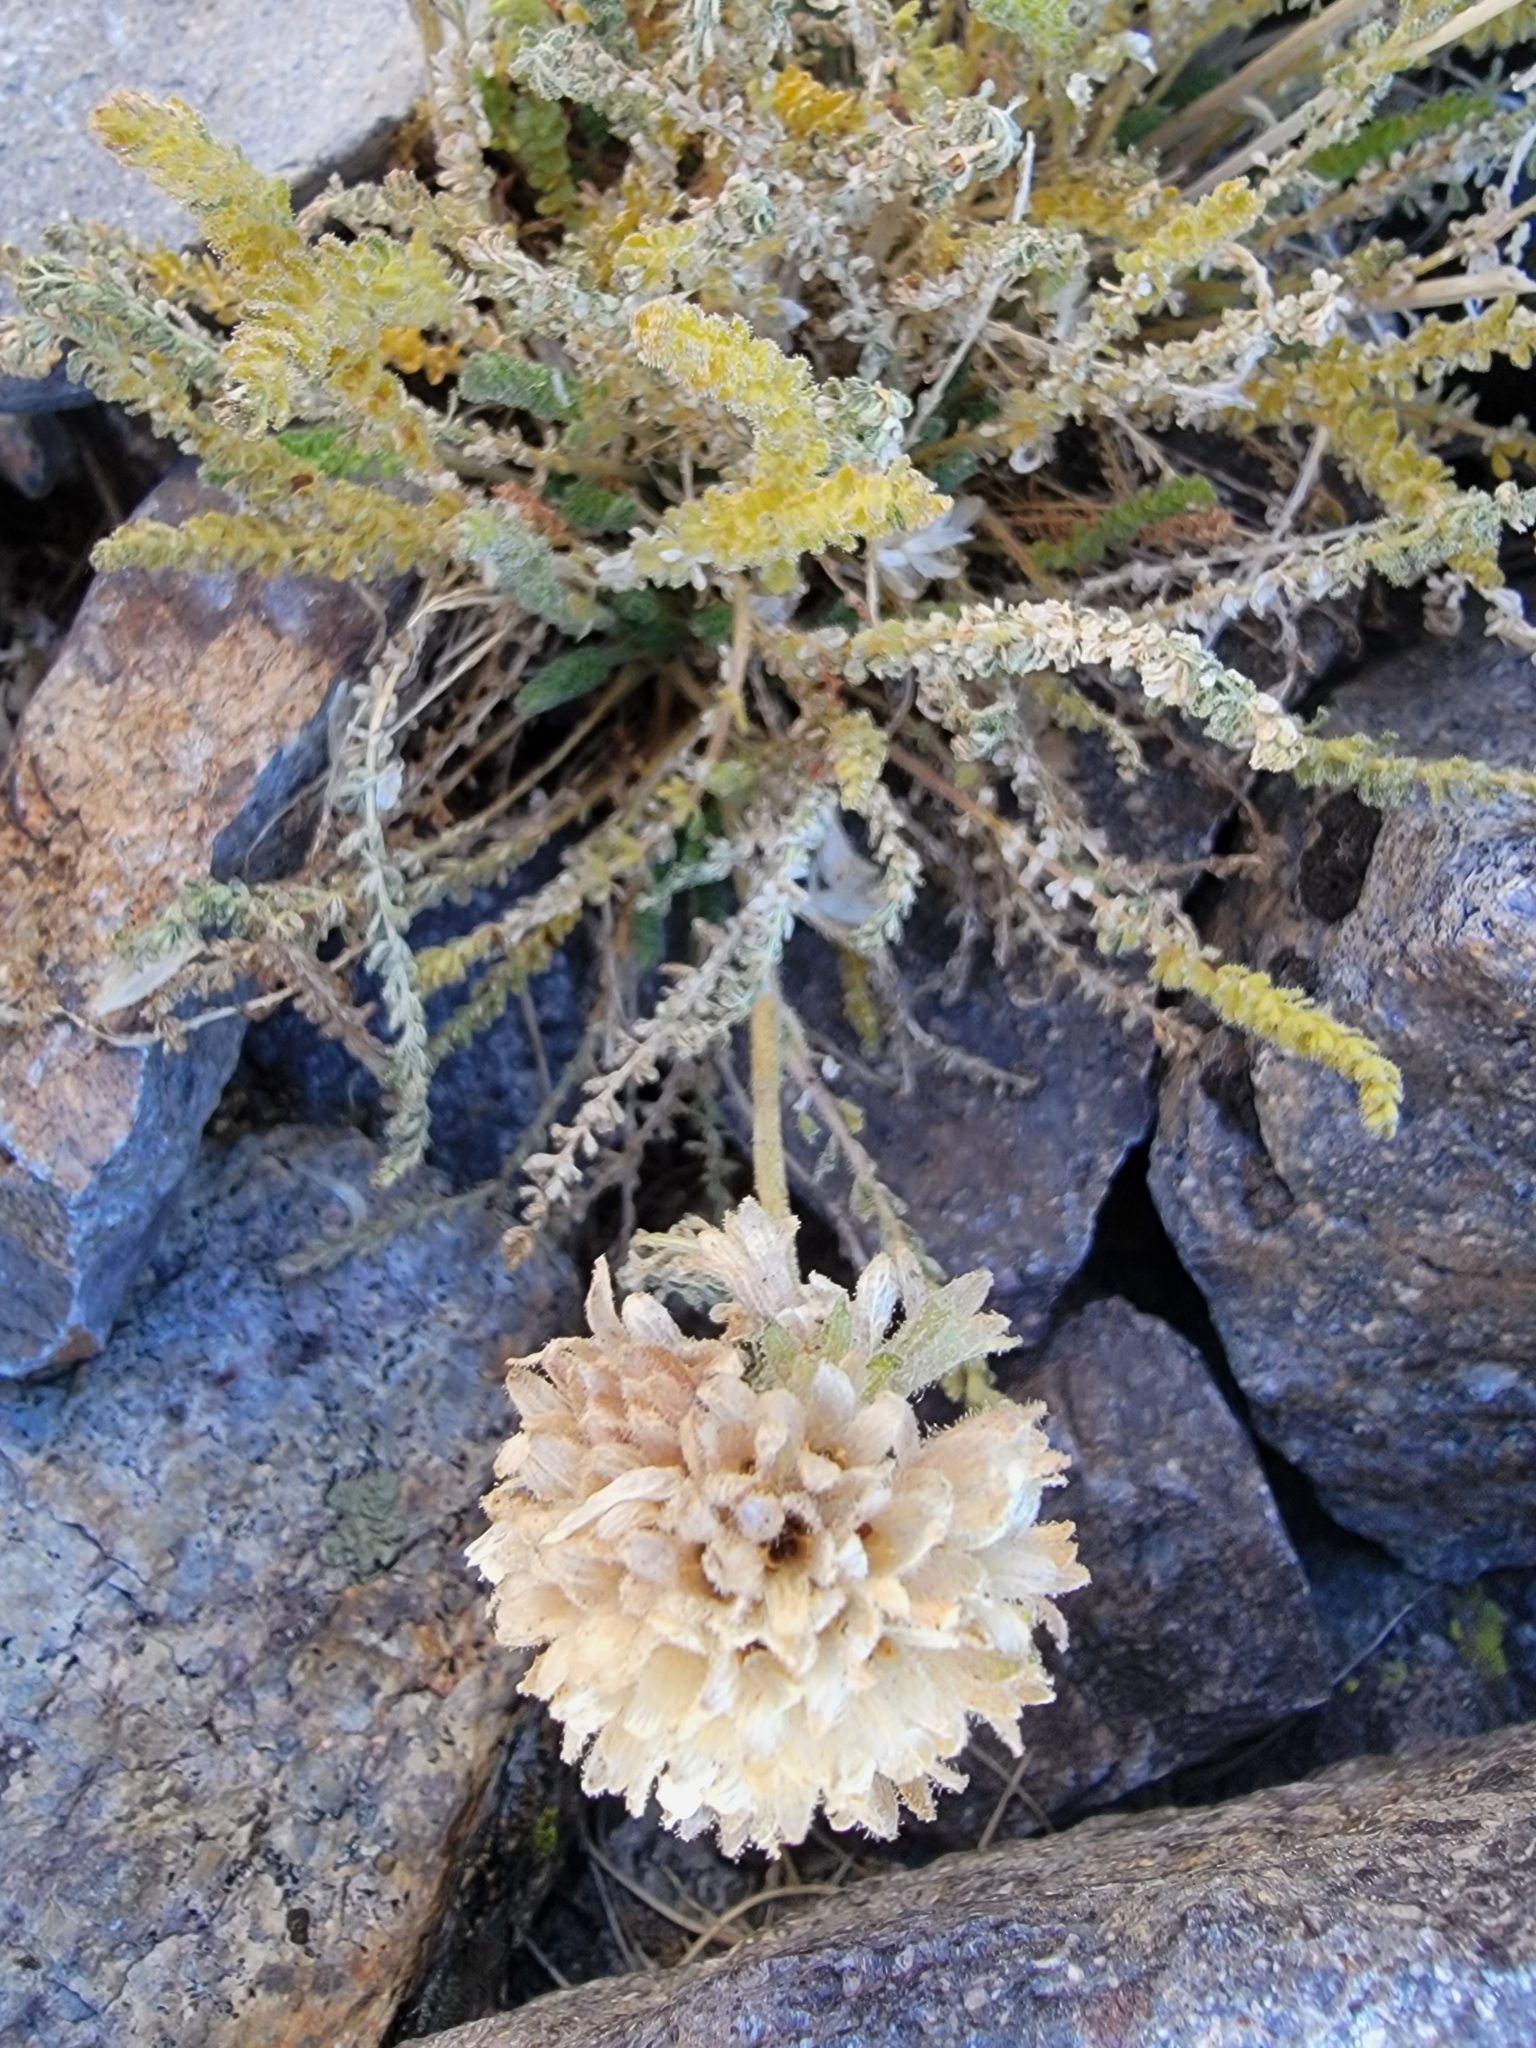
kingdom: Plantae
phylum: Tracheophyta
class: Magnoliopsida
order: Ericales
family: Polemoniaceae
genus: Polemonium
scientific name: Polemonium eximium
